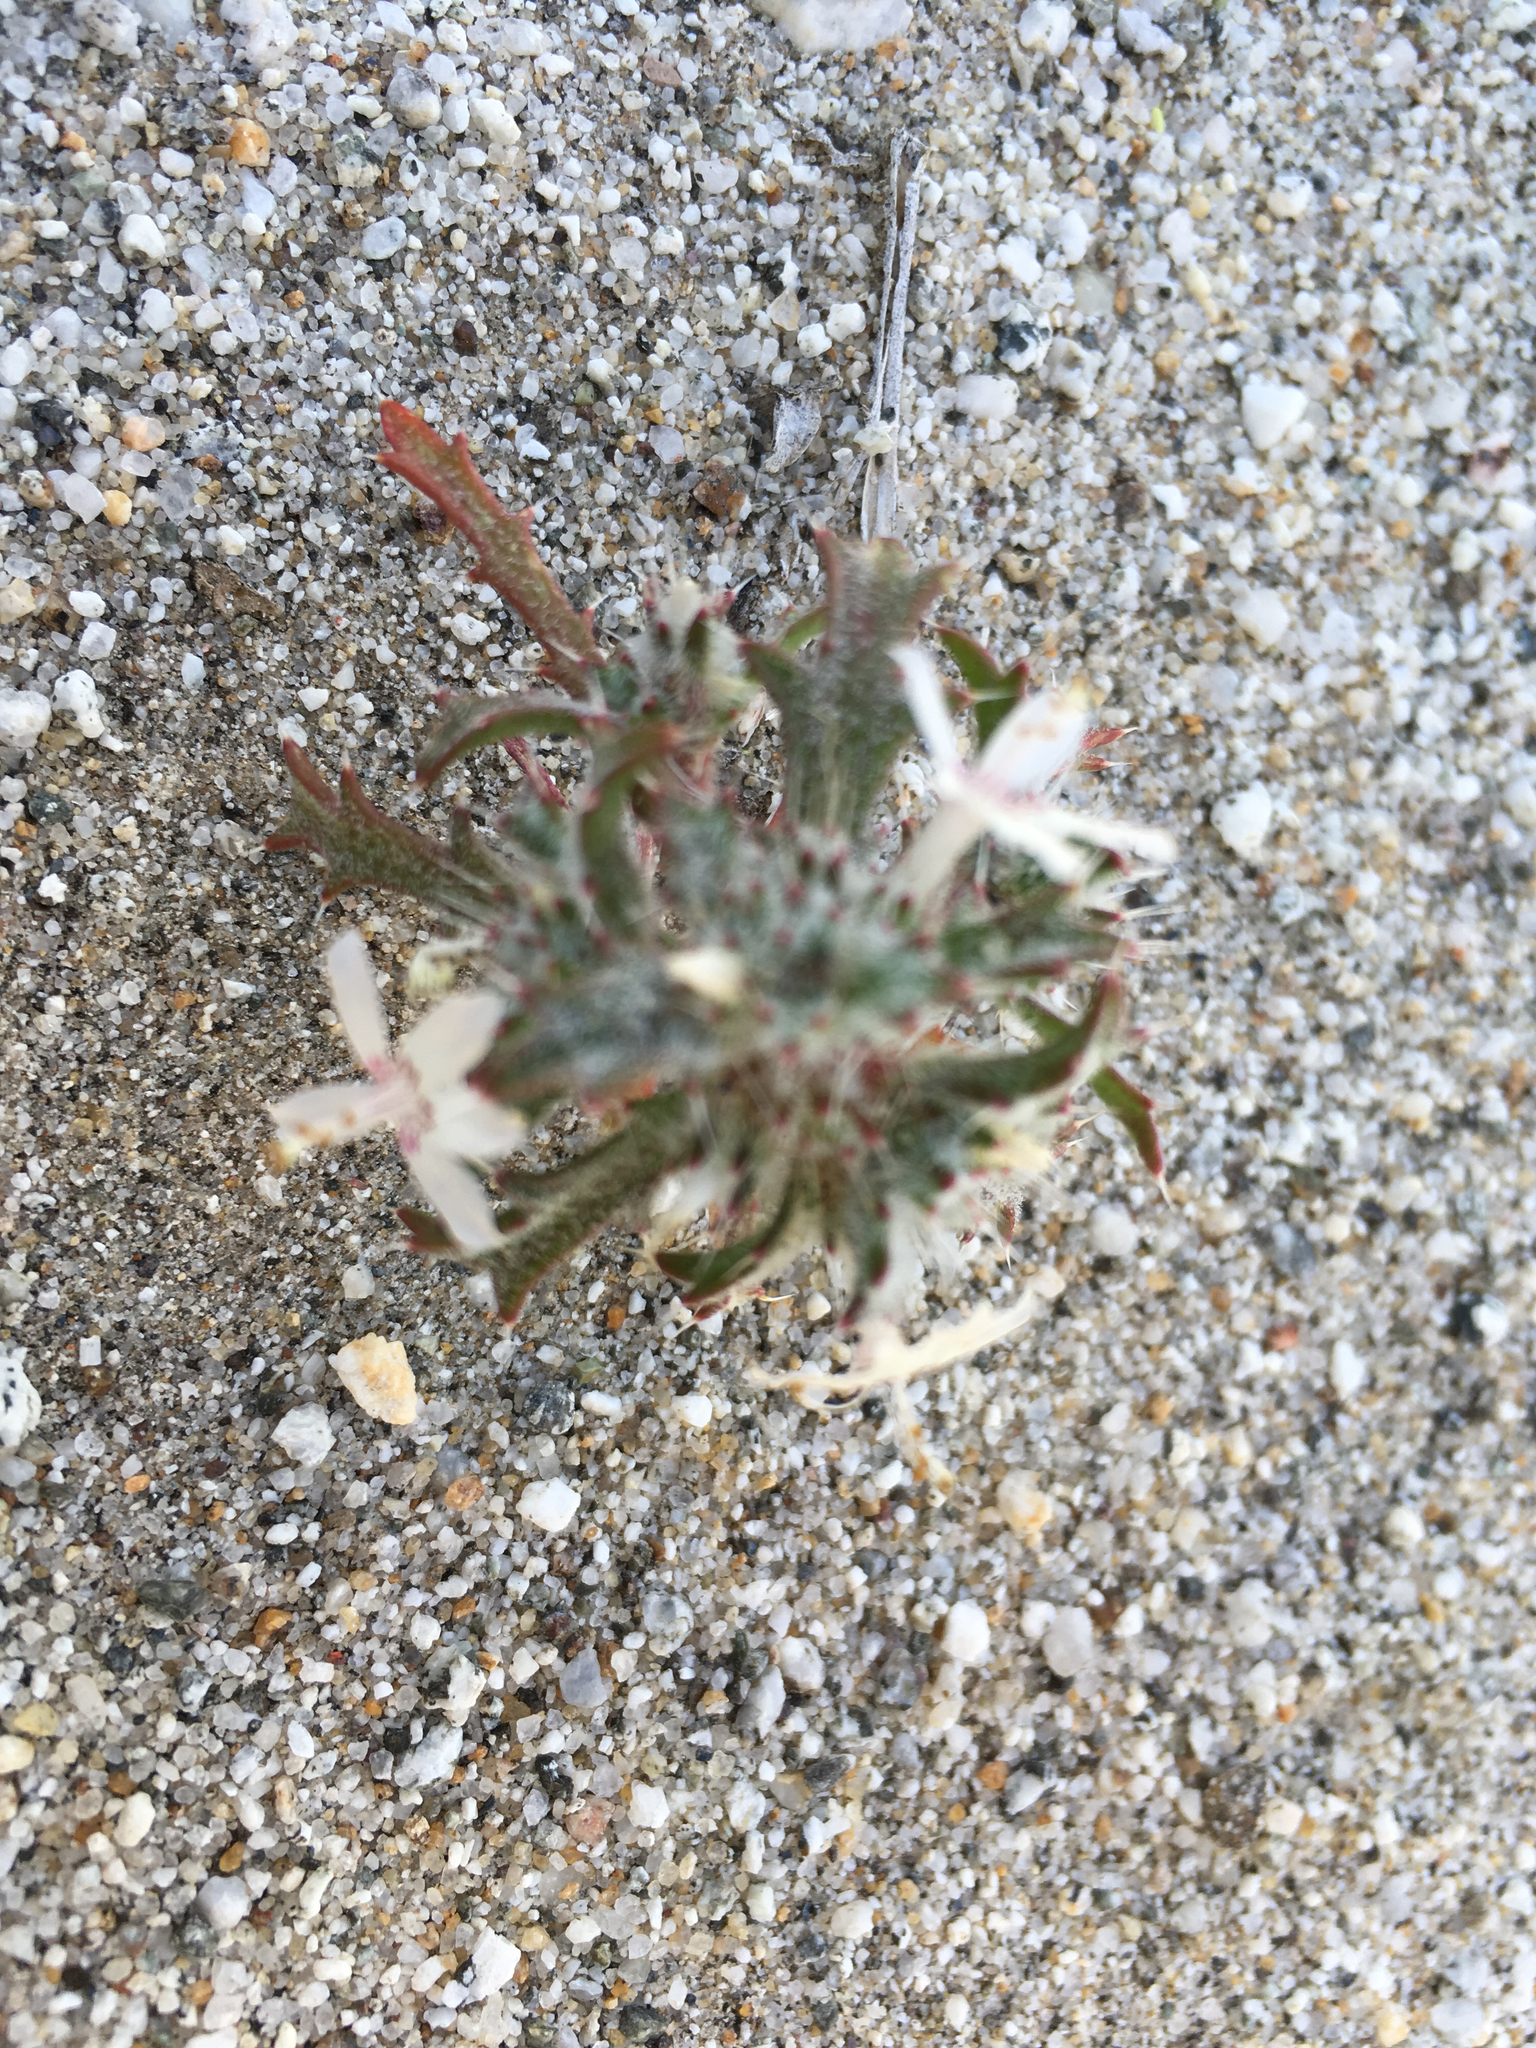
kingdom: Plantae
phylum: Tracheophyta
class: Magnoliopsida
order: Ericales
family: Polemoniaceae
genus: Loeseliastrum
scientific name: Loeseliastrum schottii
